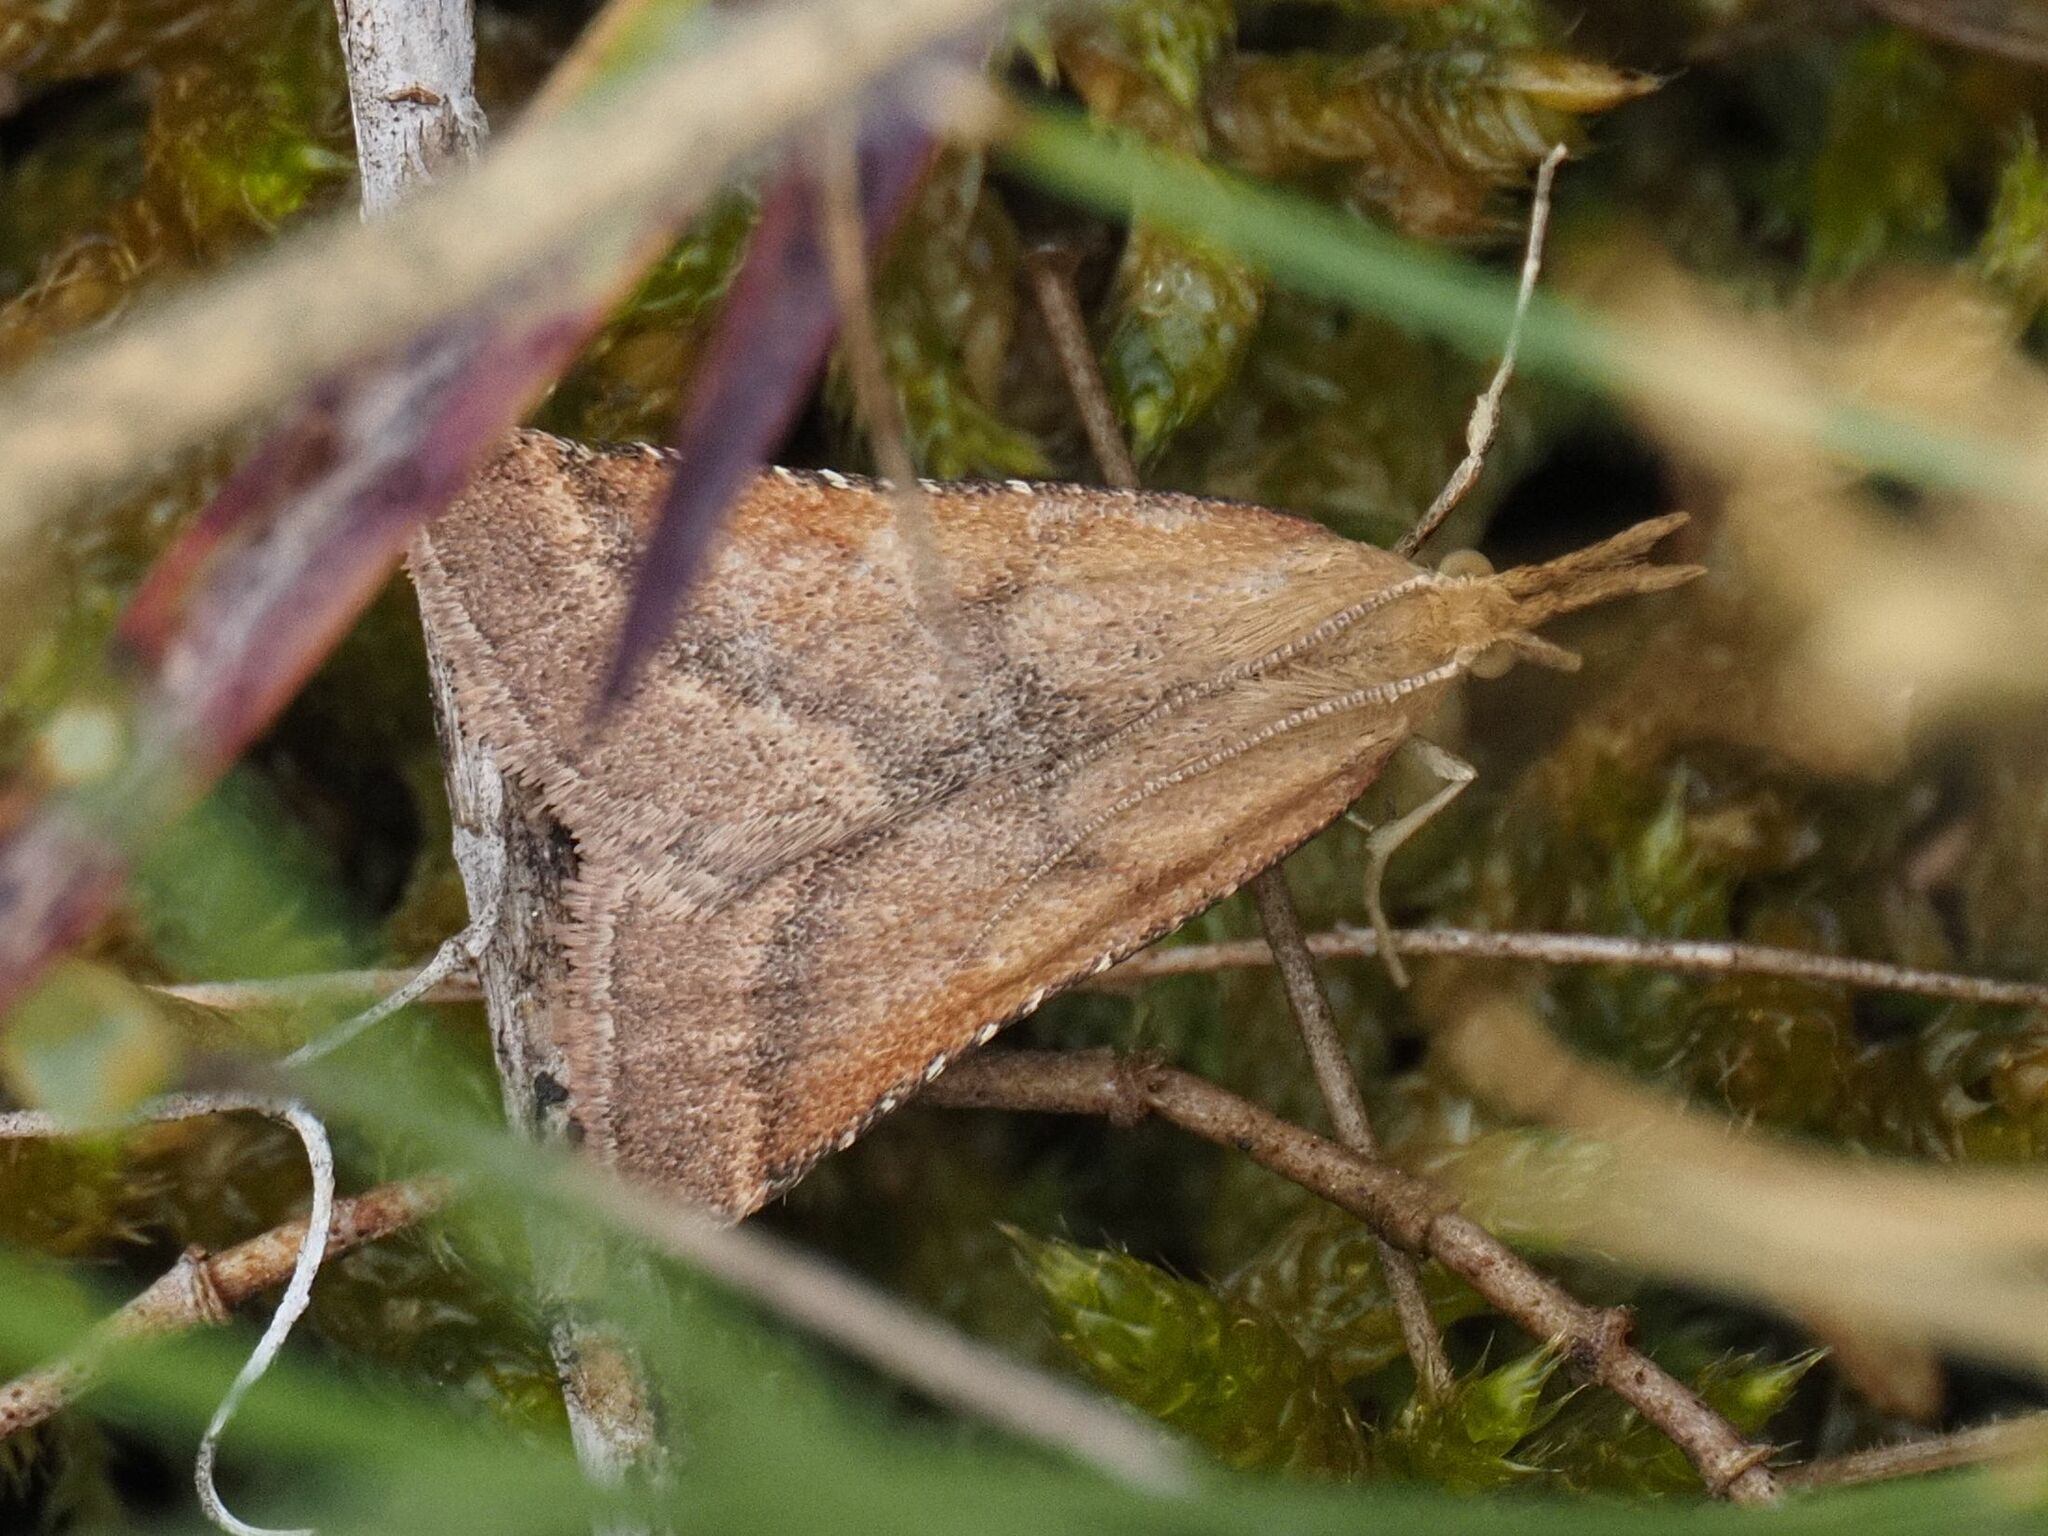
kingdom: Animalia
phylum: Arthropoda
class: Insecta
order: Lepidoptera
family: Pyralidae
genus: Synaphe
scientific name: Synaphe punctalis
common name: Long-legged tabby
